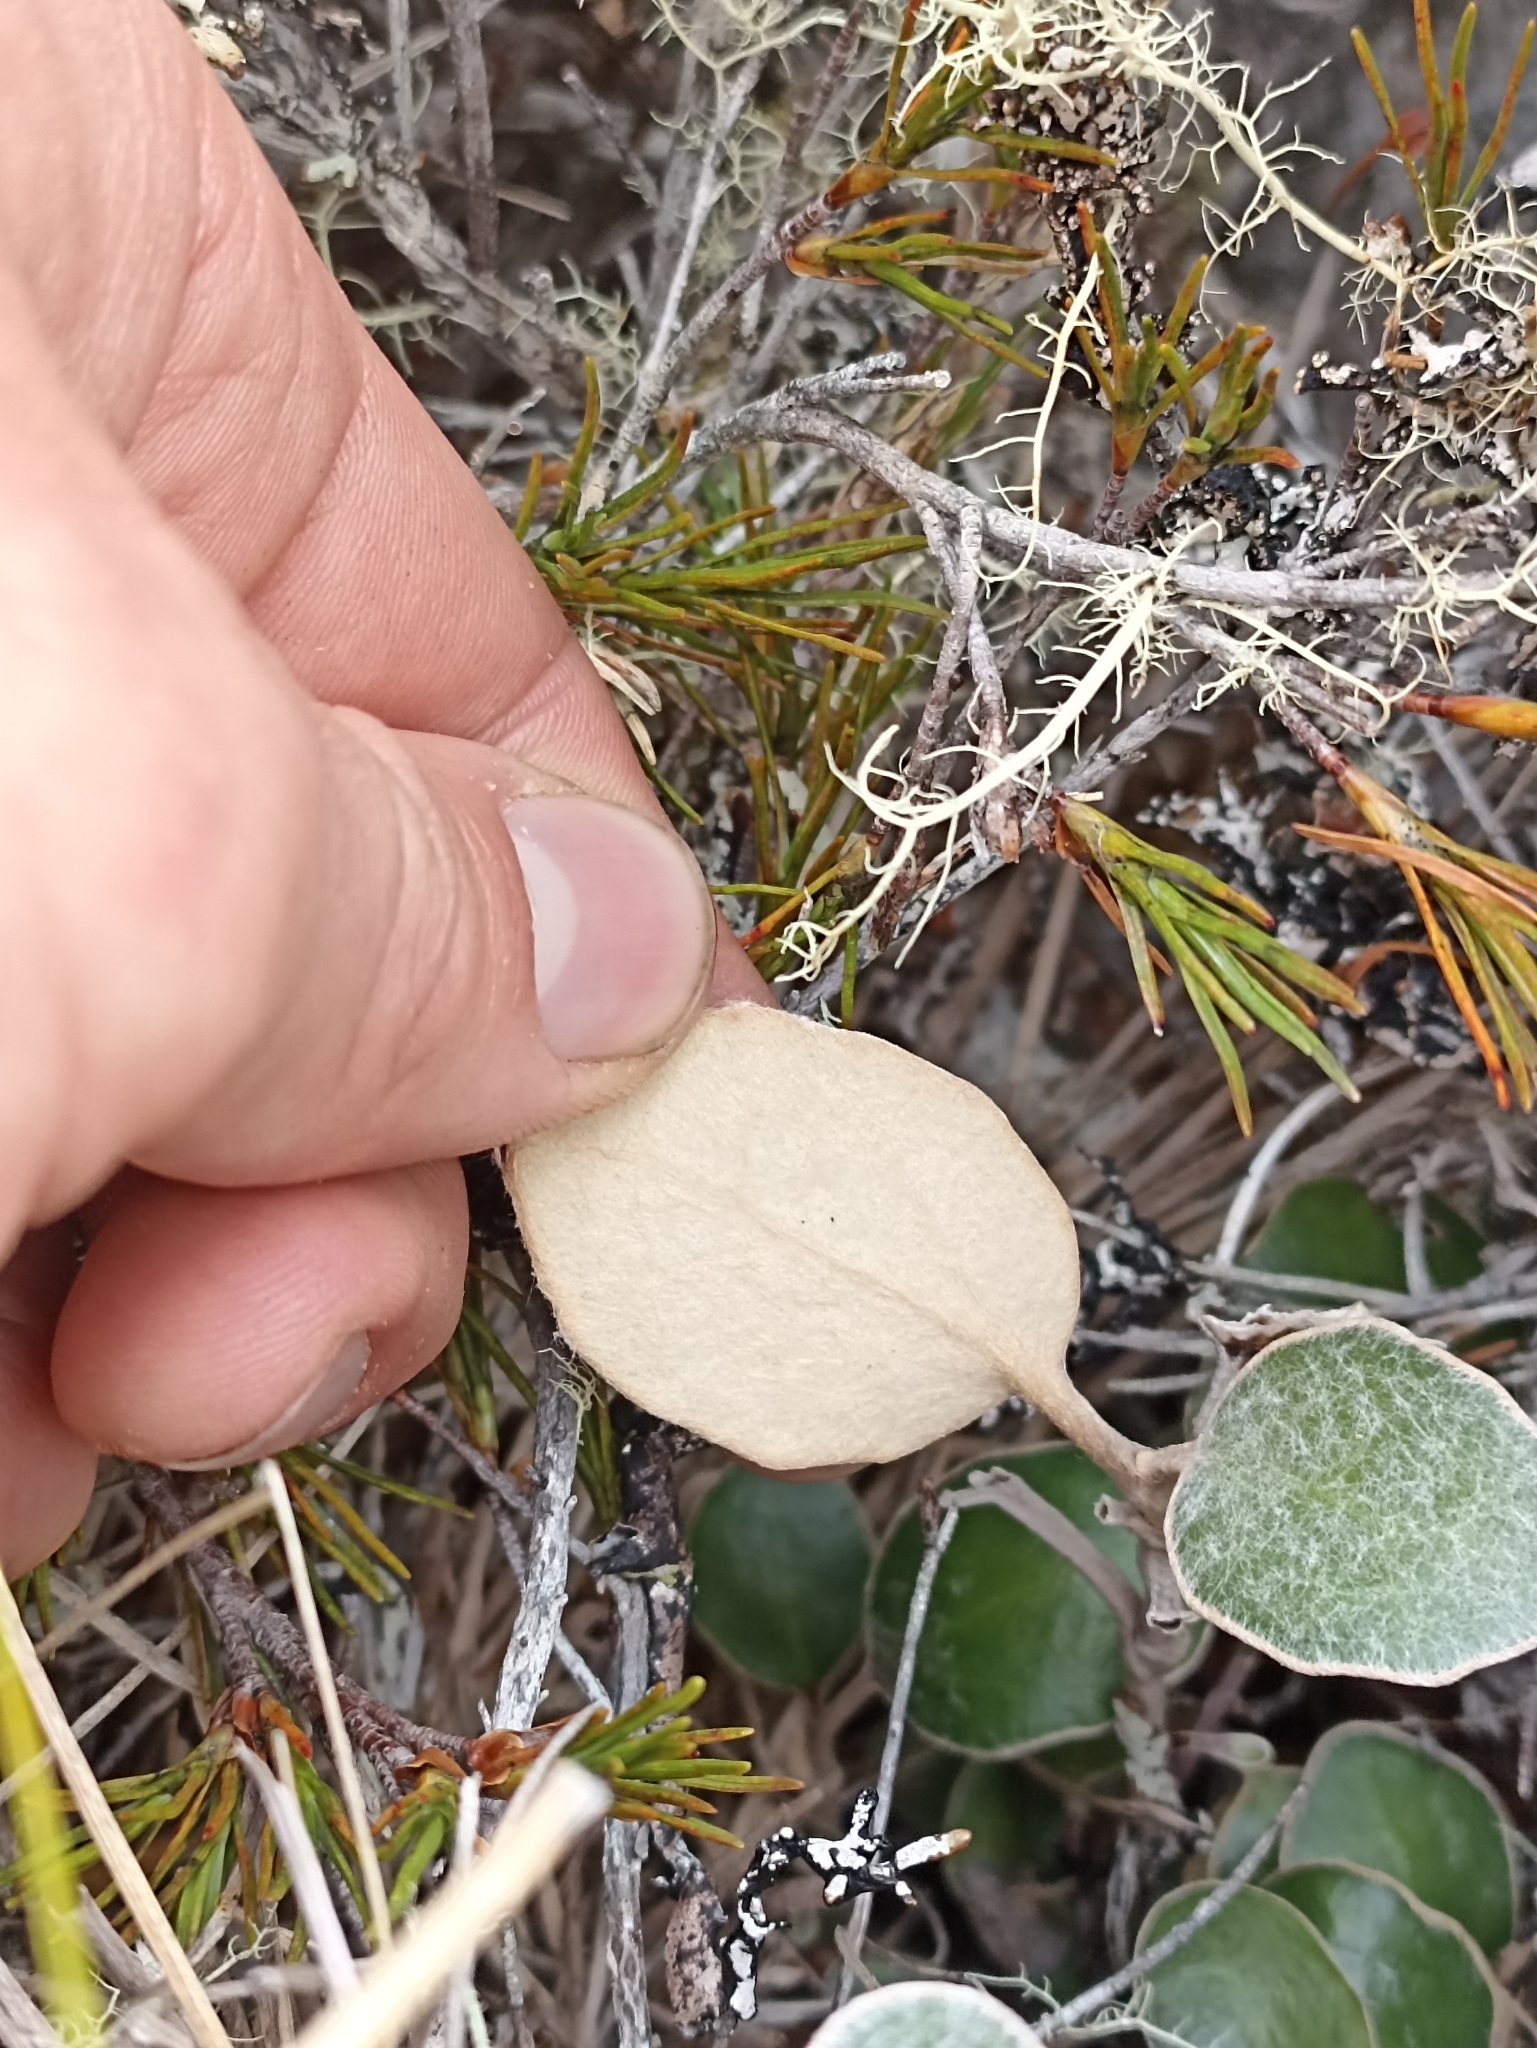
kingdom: Plantae
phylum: Tracheophyta
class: Magnoliopsida
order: Asterales
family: Asteraceae
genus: Brachyglottis
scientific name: Brachyglottis bidwillii
